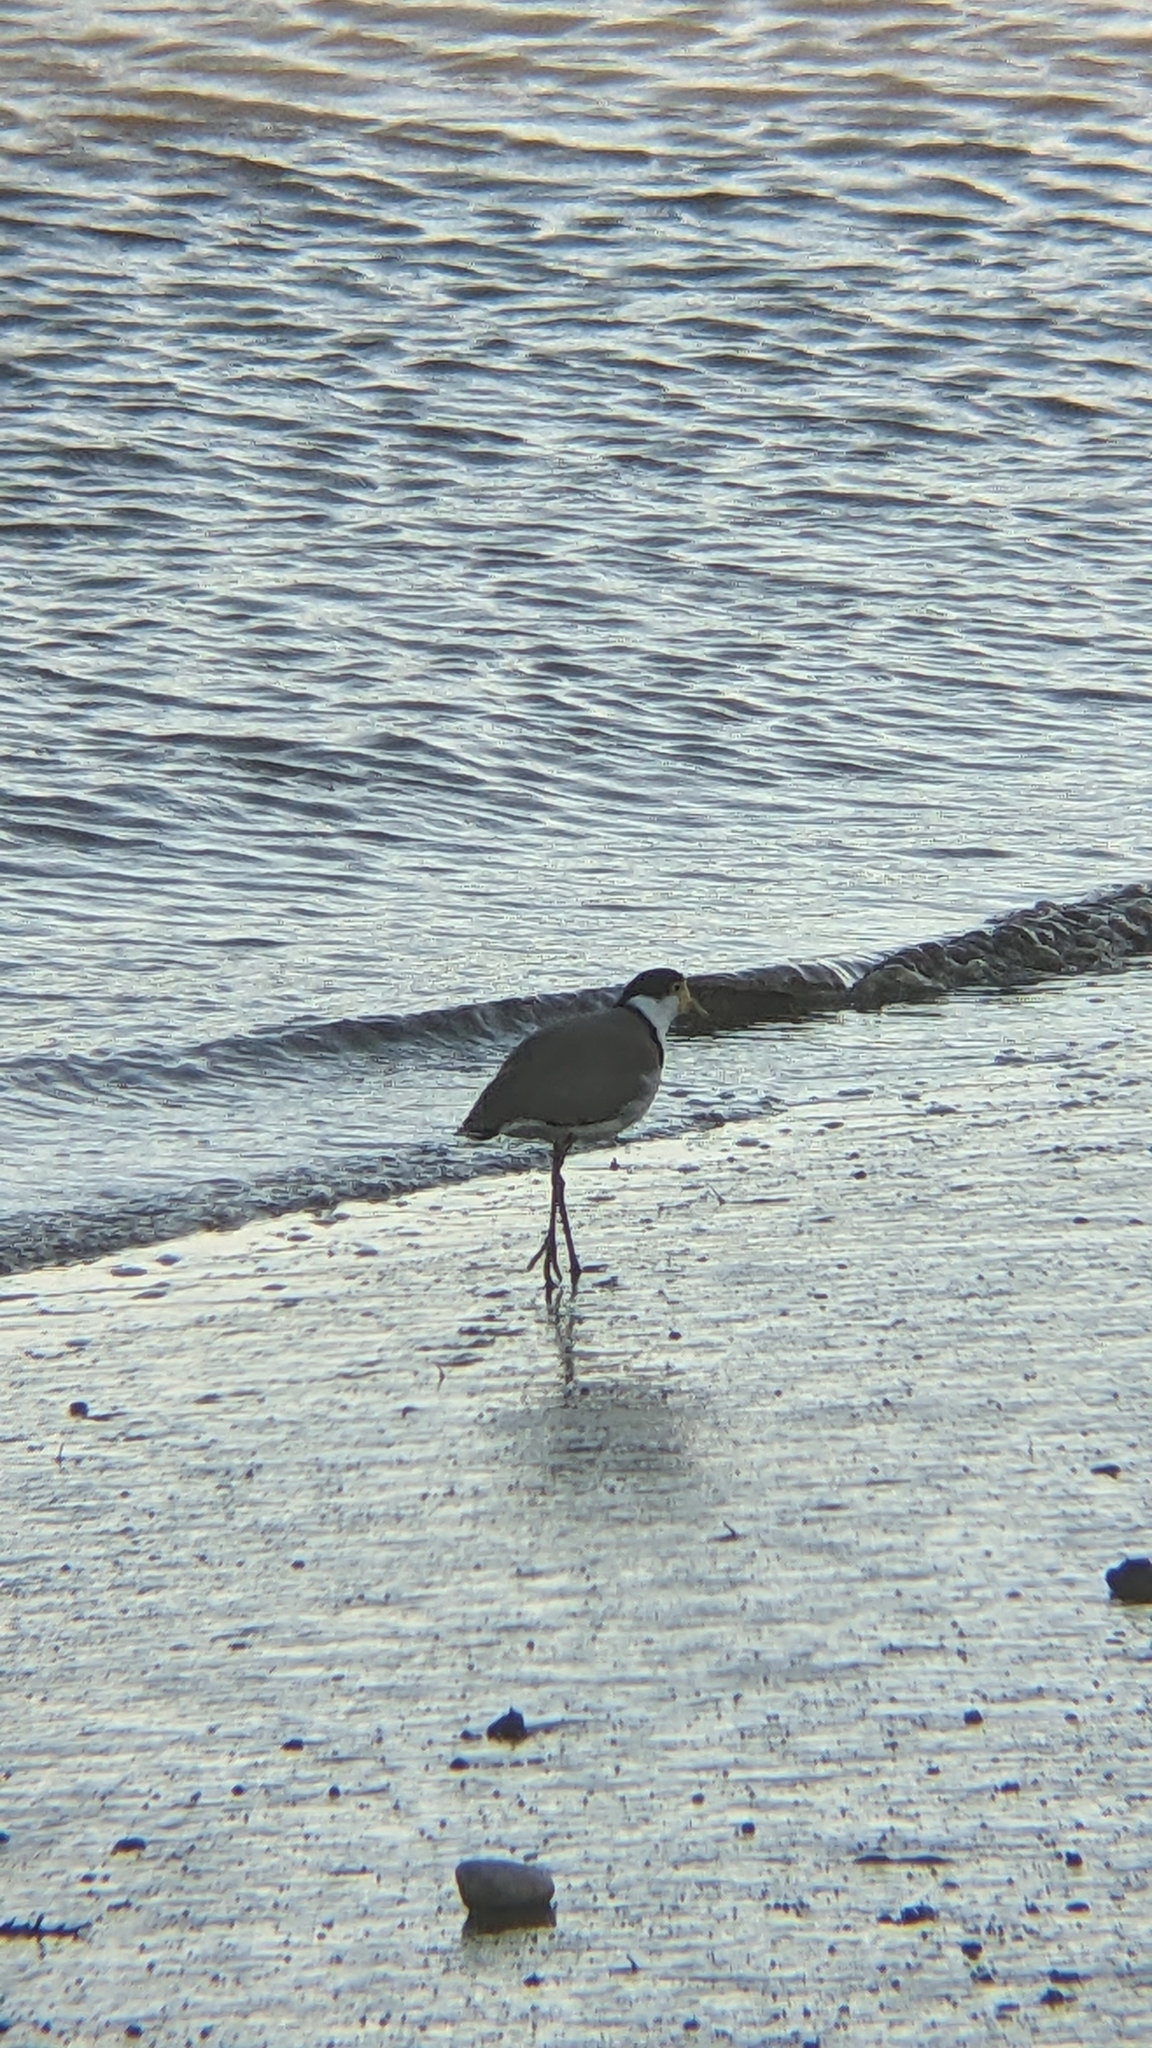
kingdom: Animalia
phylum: Chordata
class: Aves
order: Charadriiformes
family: Charadriidae
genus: Vanellus
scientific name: Vanellus miles
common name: Masked lapwing
